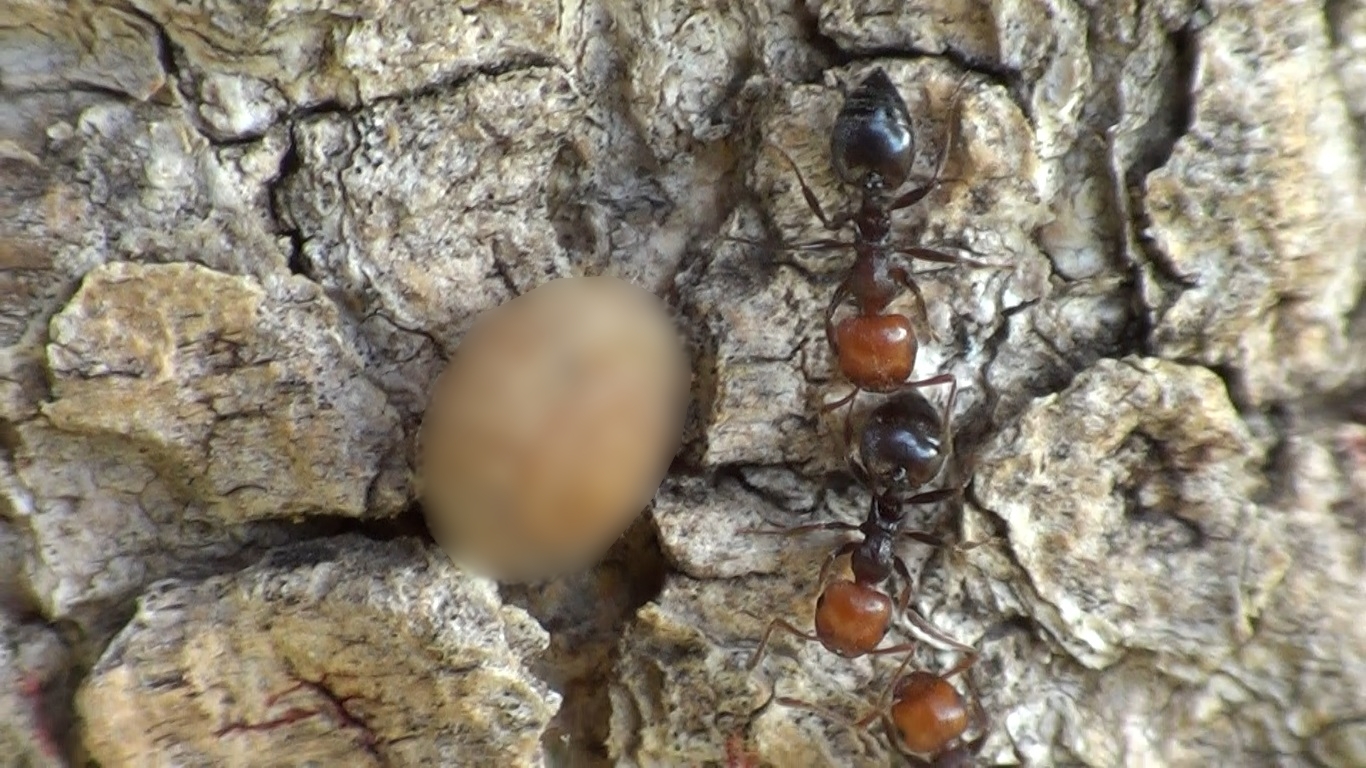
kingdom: Animalia
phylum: Arthropoda
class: Insecta
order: Hymenoptera
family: Formicidae
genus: Crematogaster
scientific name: Crematogaster scutellaris
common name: Fourmi du liège
